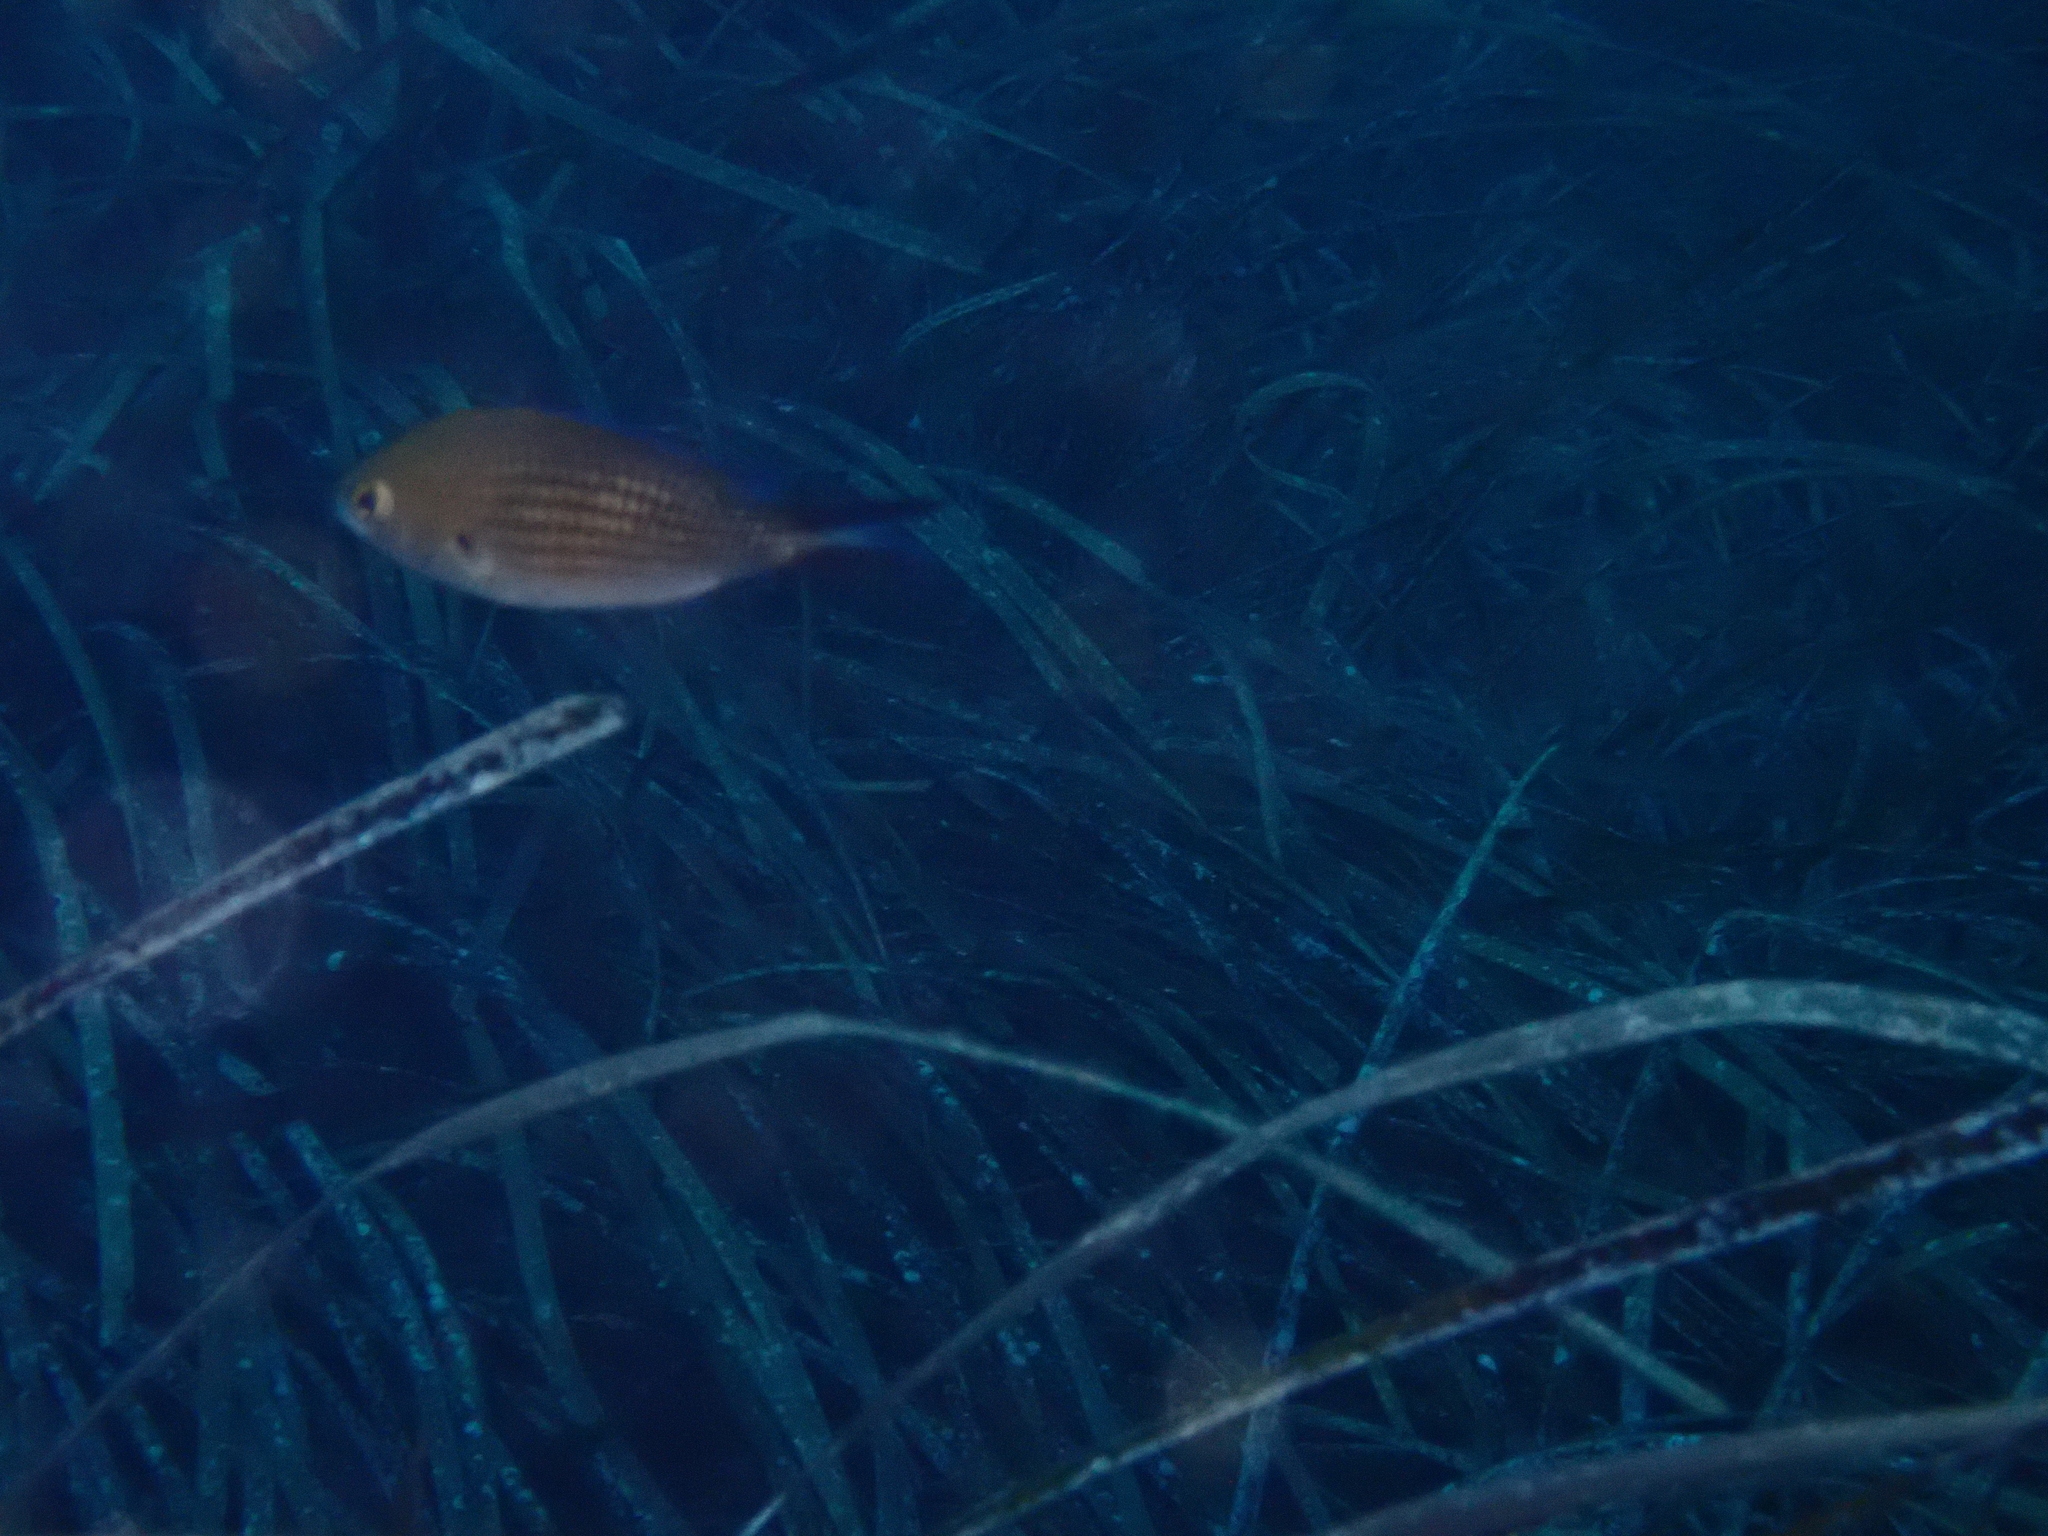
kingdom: Animalia
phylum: Chordata
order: Perciformes
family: Pomacentridae
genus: Chromis
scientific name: Chromis chromis
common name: Damselfish
